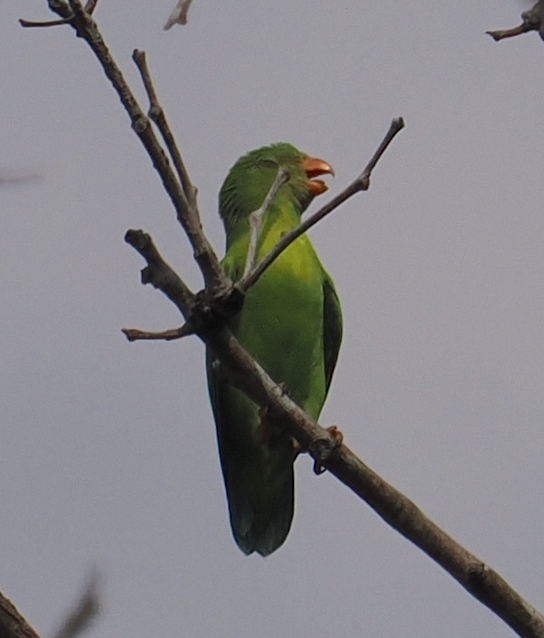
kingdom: Animalia
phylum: Chordata
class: Aves
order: Psittaciformes
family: Psittacidae
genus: Loriculus
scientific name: Loriculus vernalis
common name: Vernal hanging parrot
